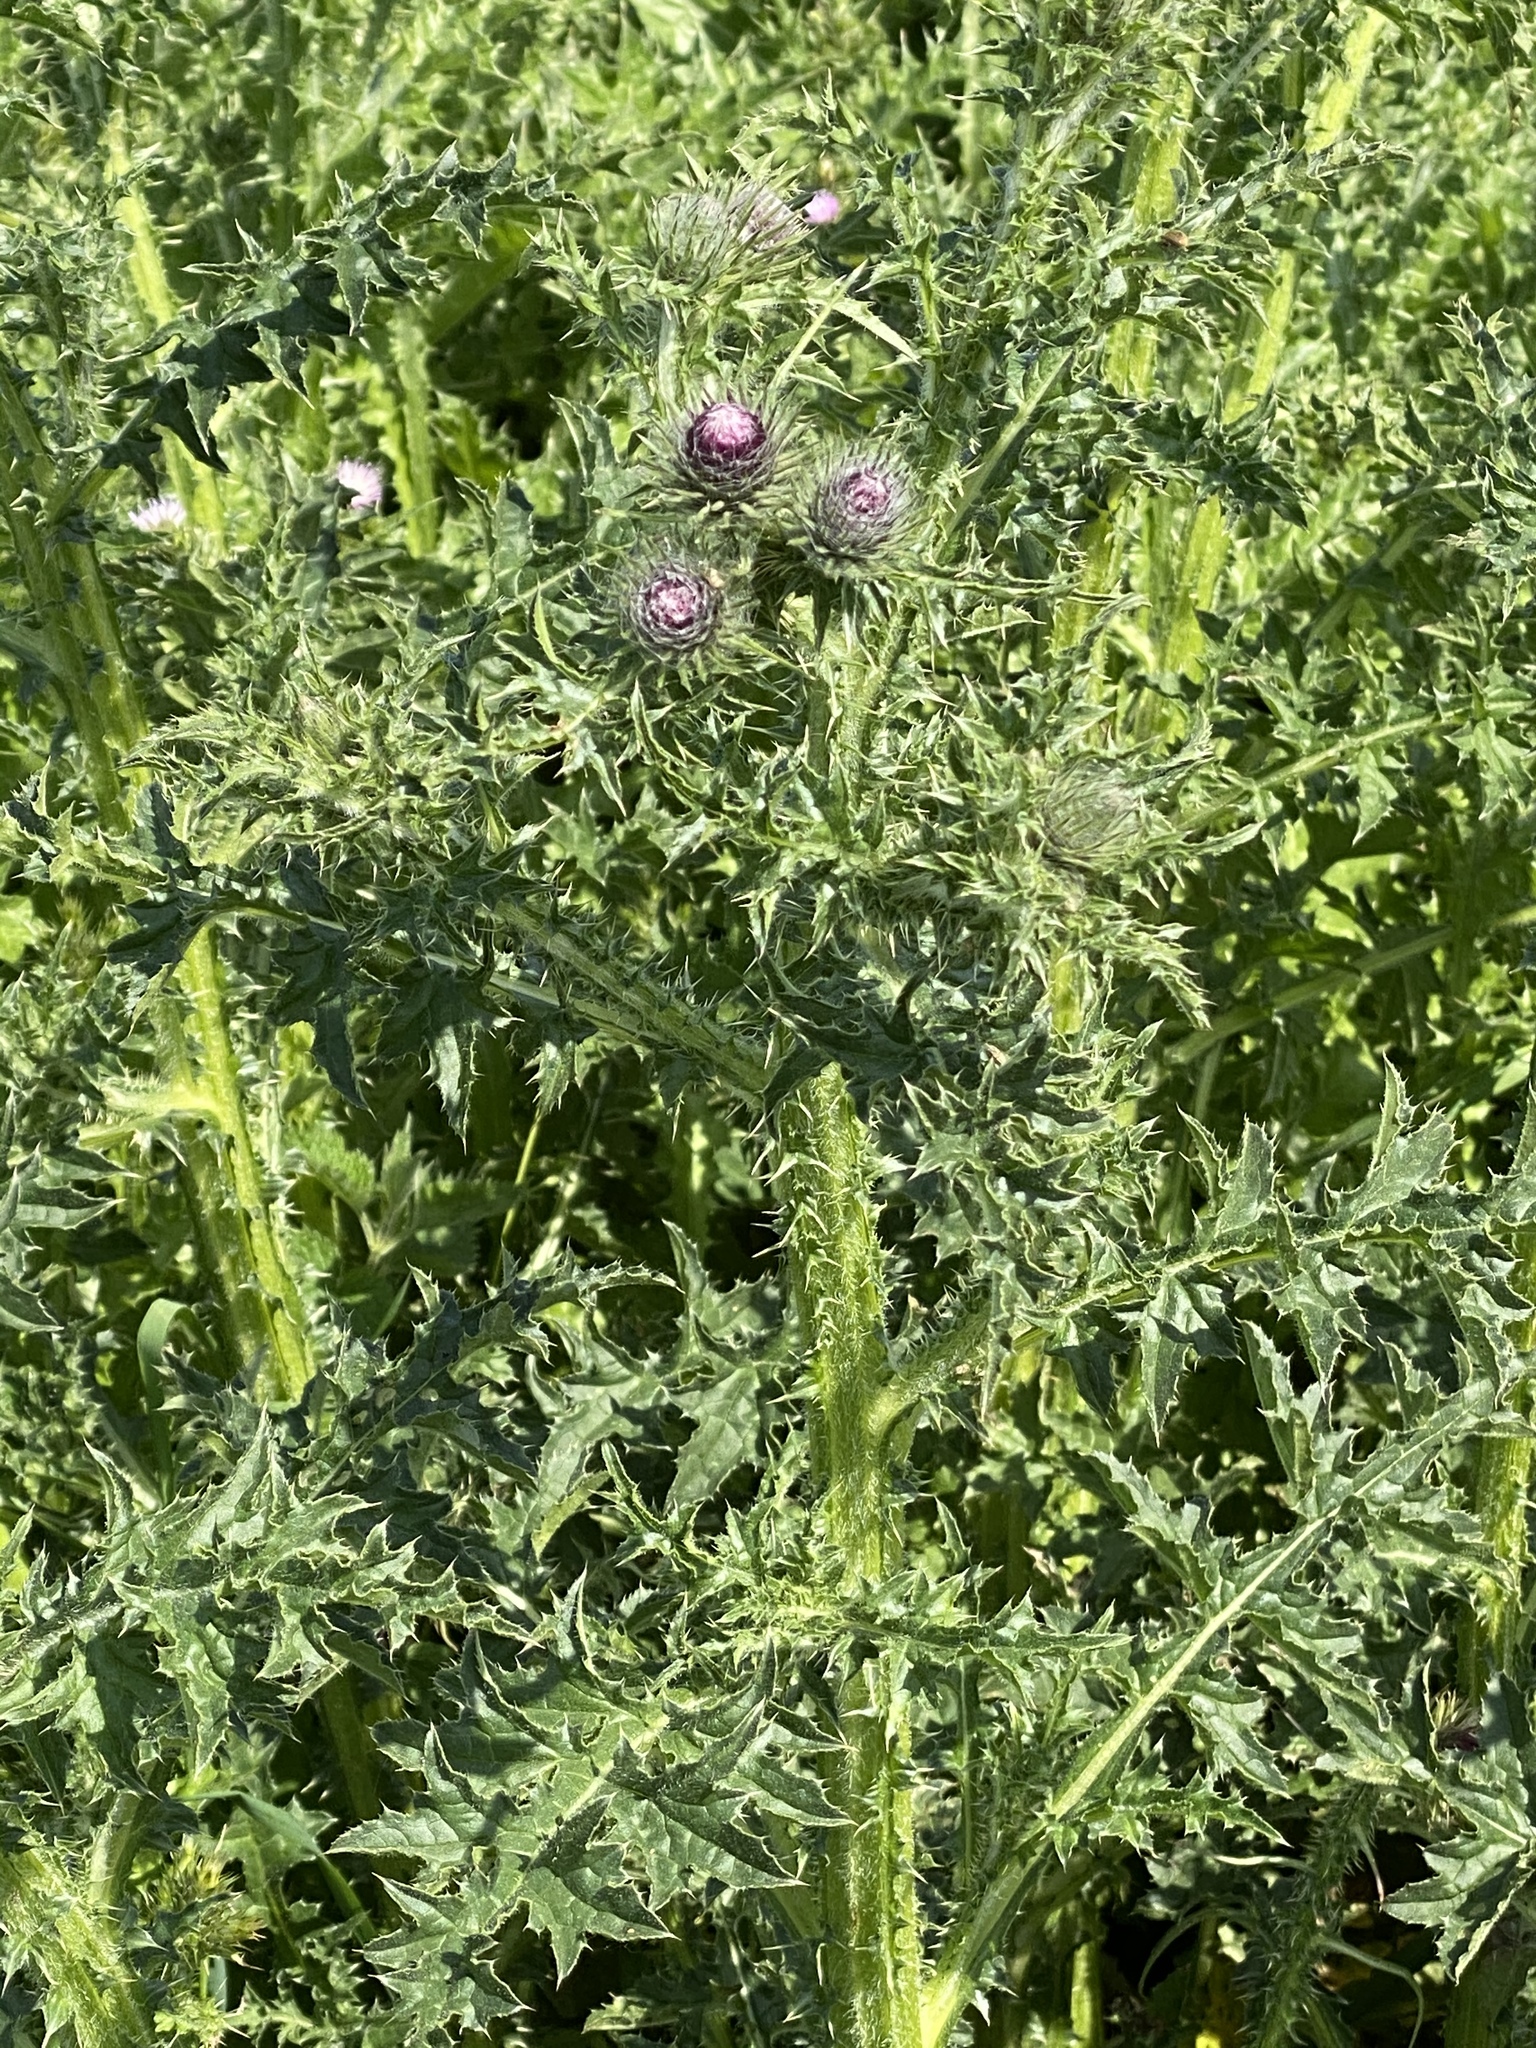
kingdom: Plantae
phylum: Tracheophyta
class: Magnoliopsida
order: Asterales
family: Asteraceae
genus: Carduus
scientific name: Carduus crispus
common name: Welted thistle
